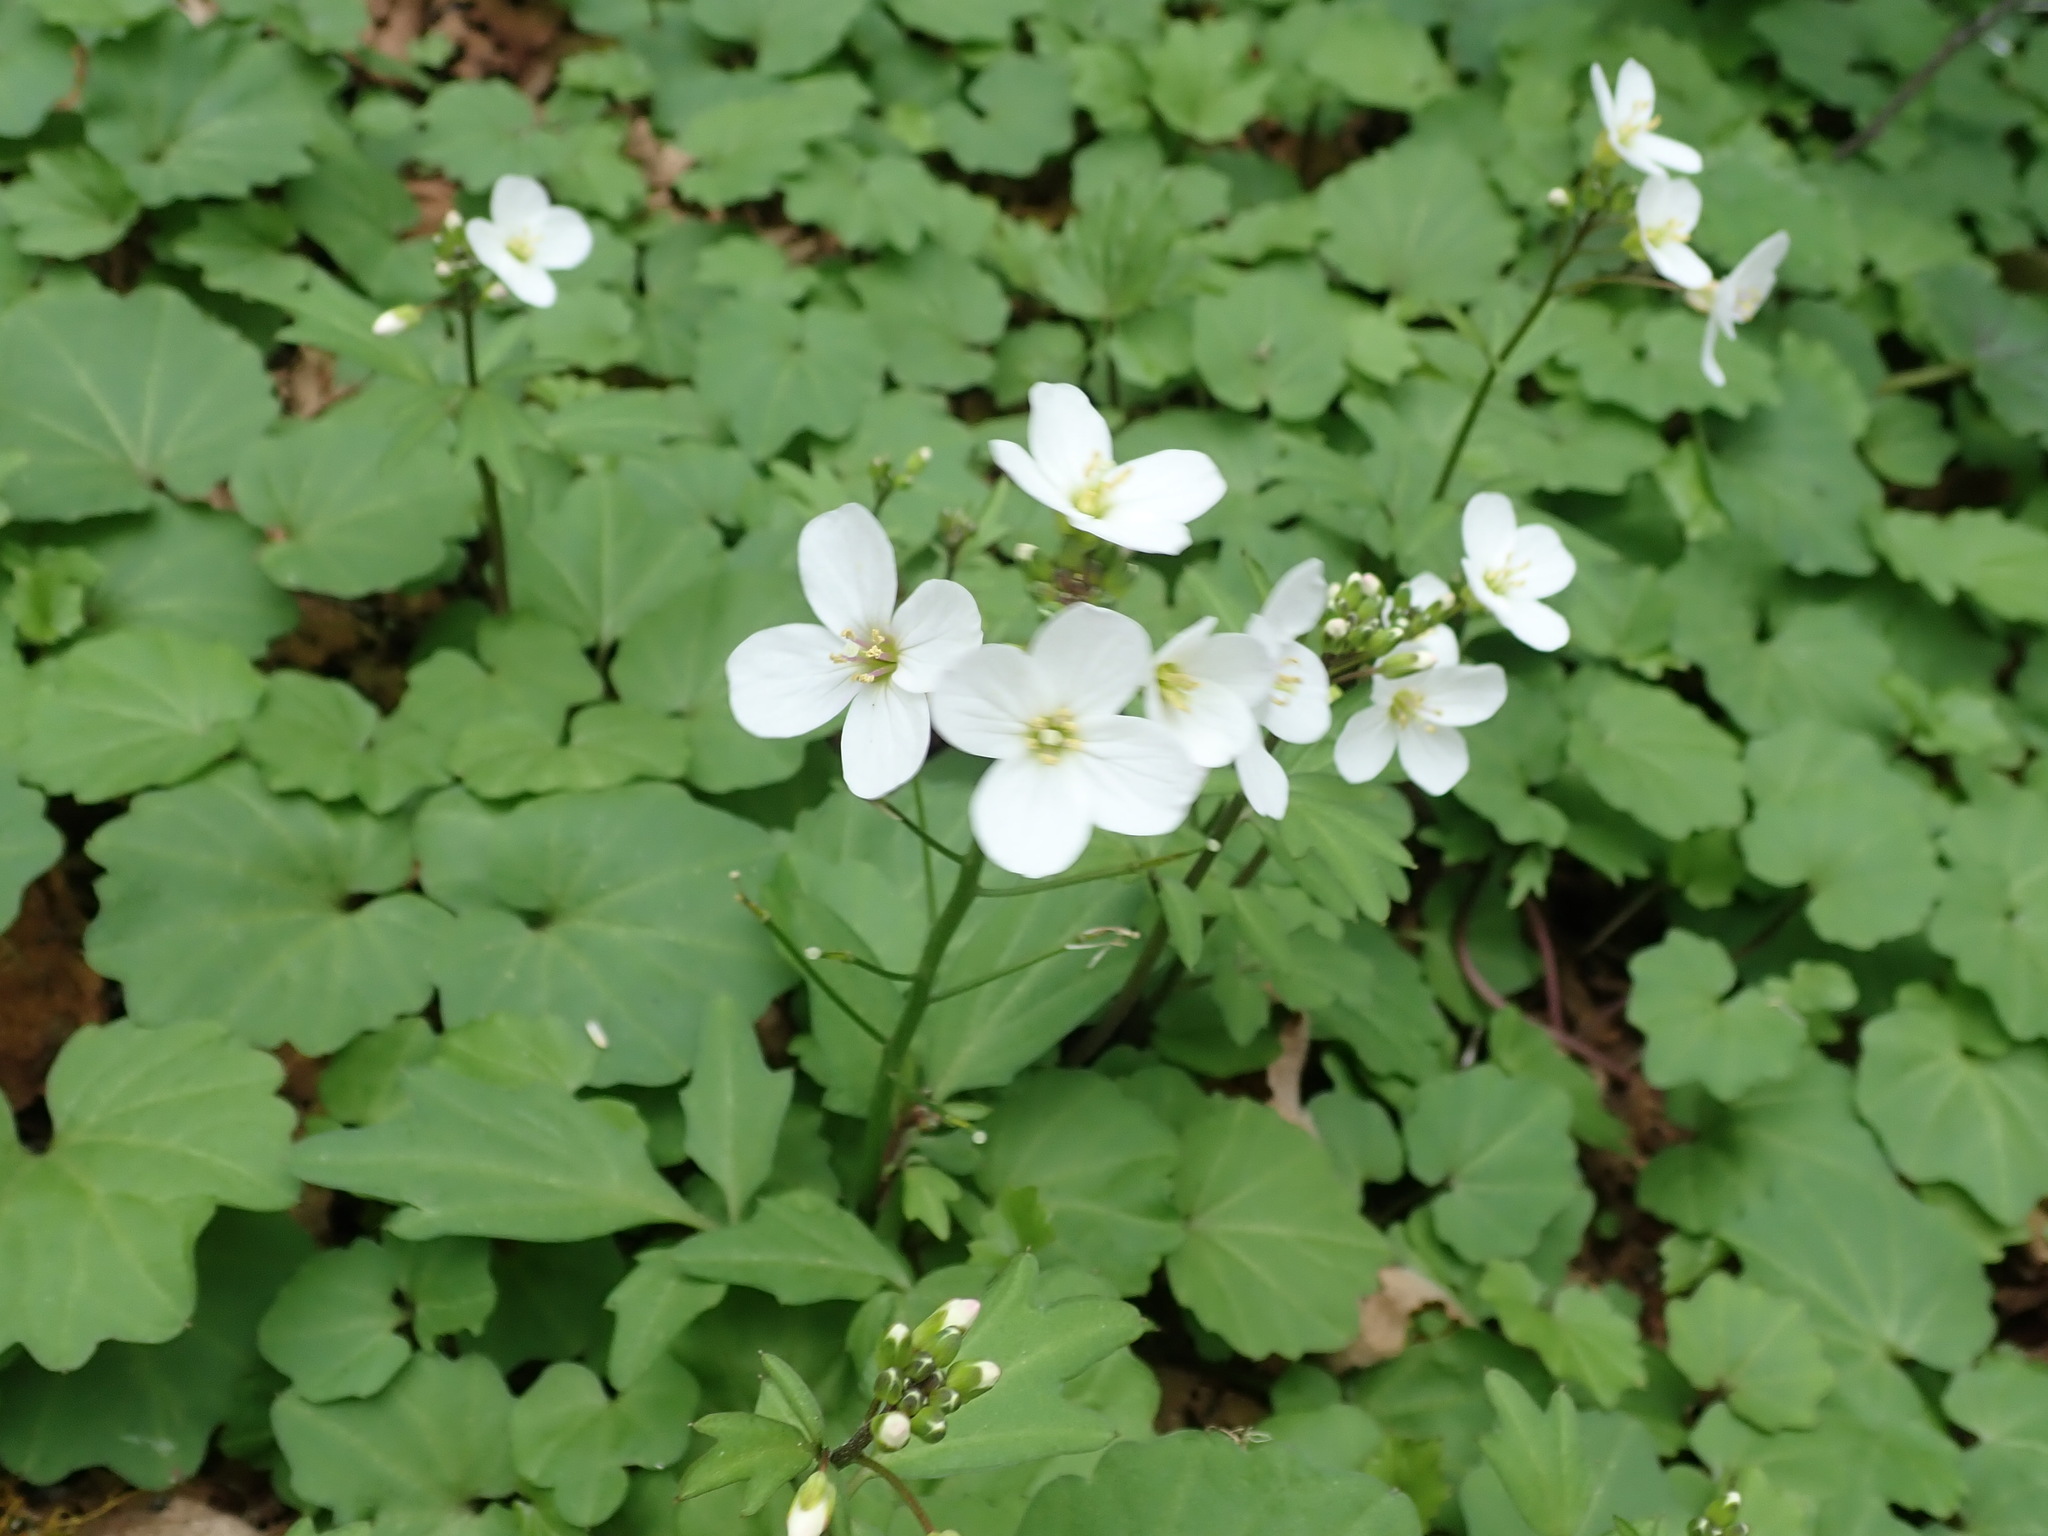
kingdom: Plantae
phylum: Tracheophyta
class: Magnoliopsida
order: Brassicales
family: Brassicaceae
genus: Cardamine
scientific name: Cardamine californica
